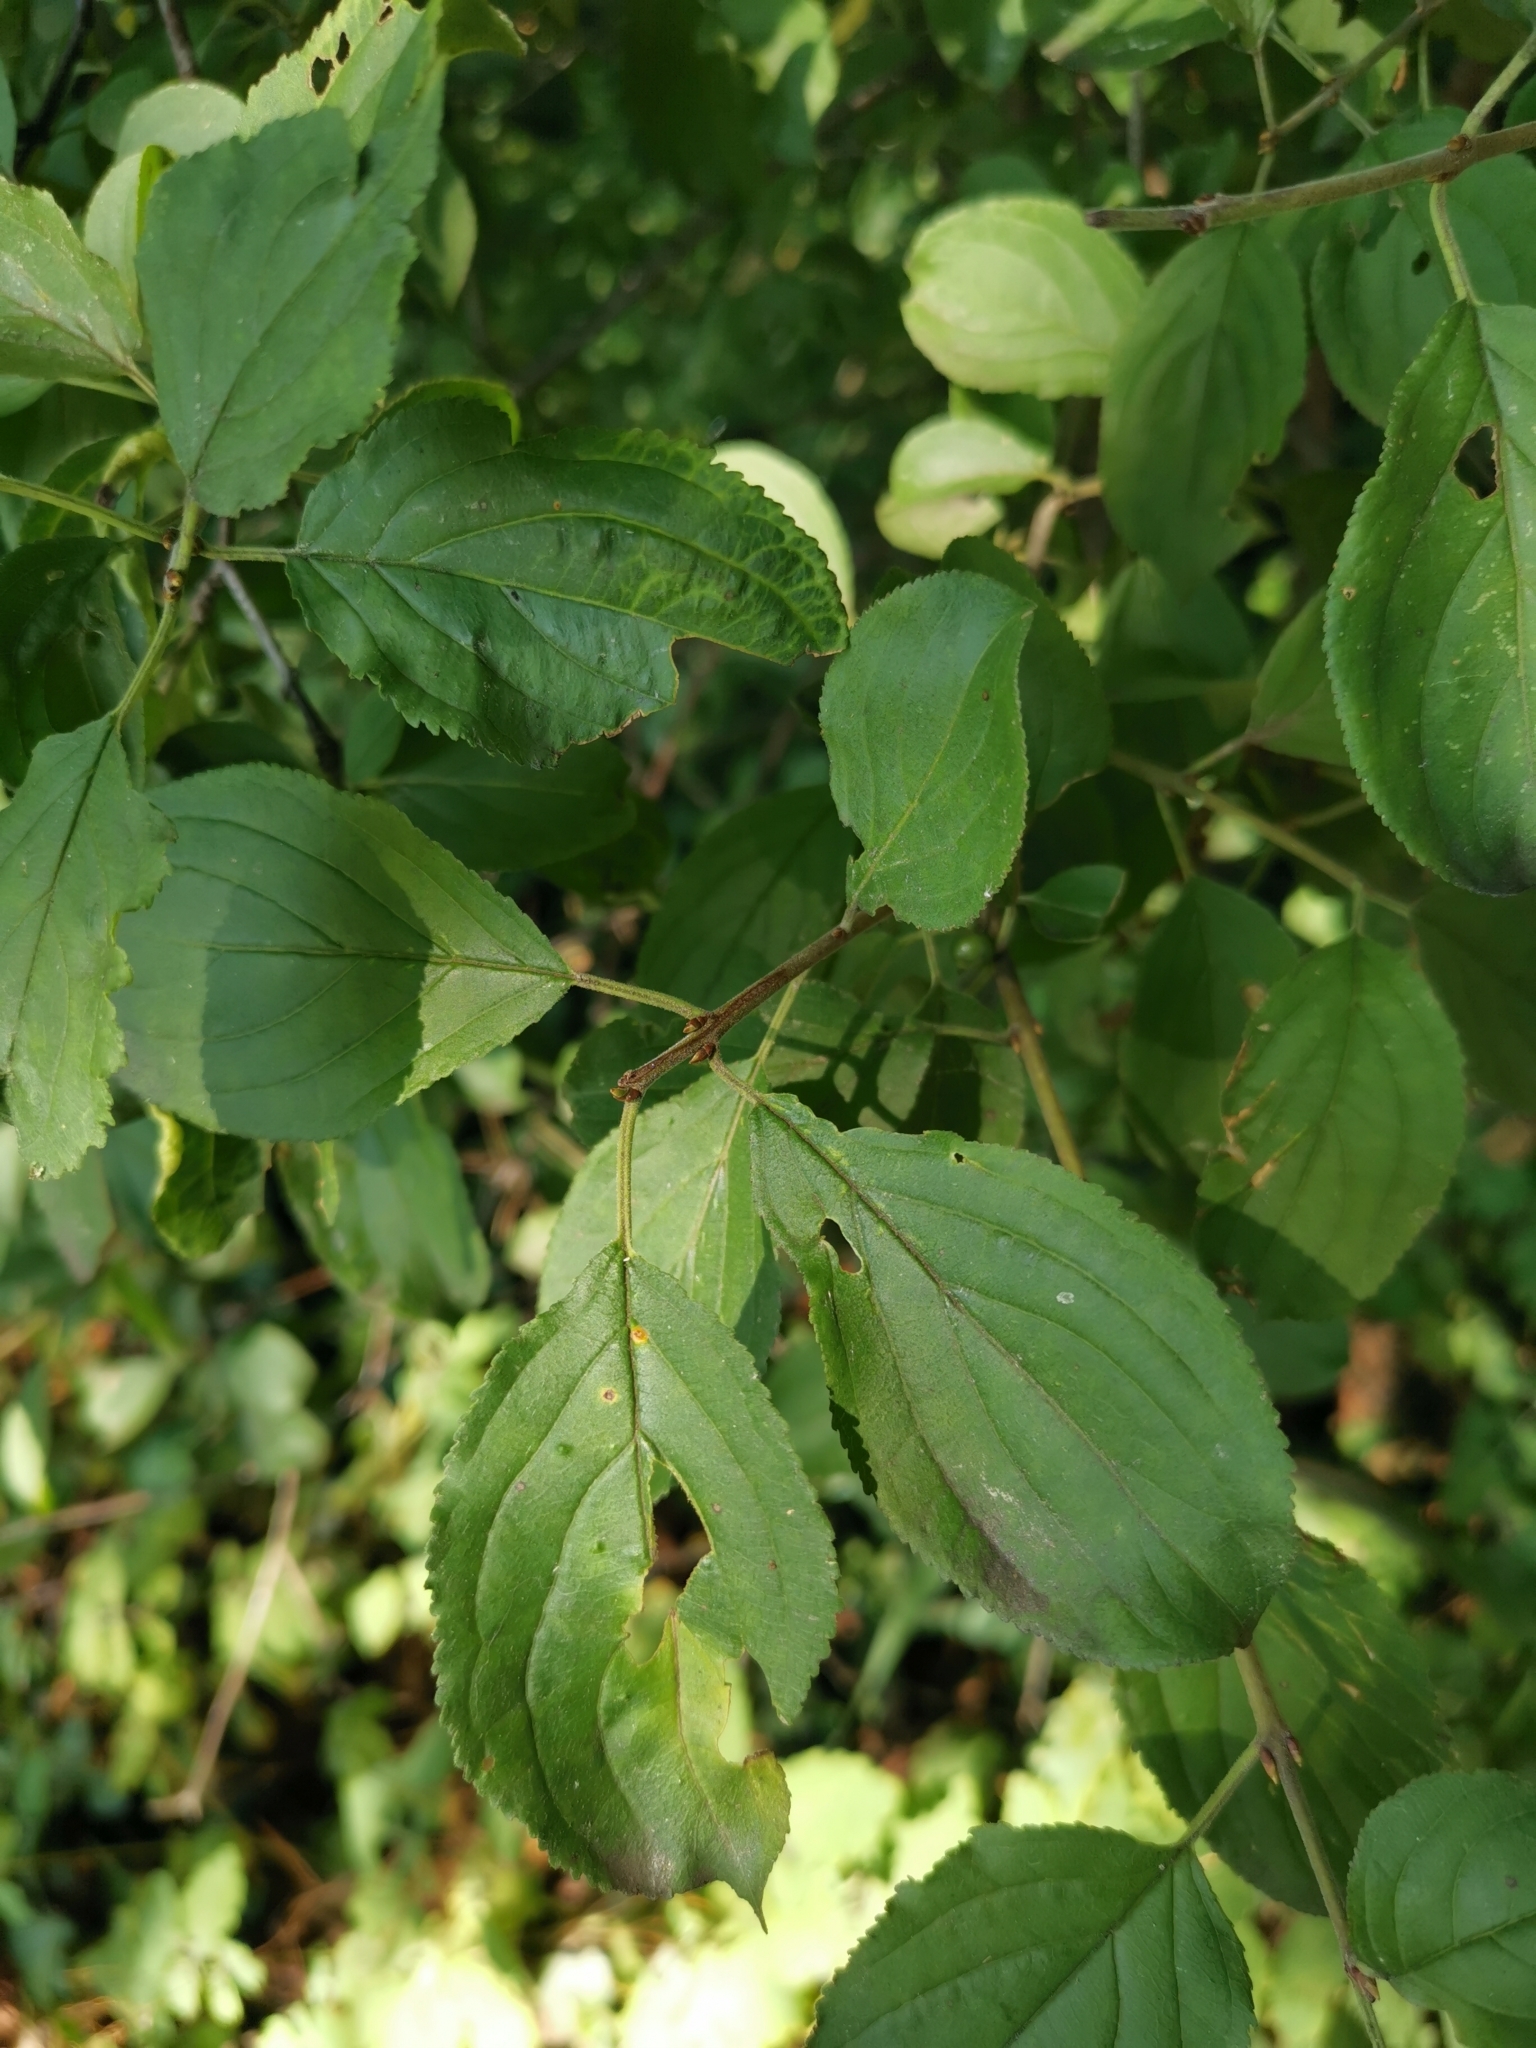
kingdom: Plantae
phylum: Tracheophyta
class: Magnoliopsida
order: Rosales
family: Rhamnaceae
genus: Rhamnus
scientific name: Rhamnus cathartica
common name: Common buckthorn
